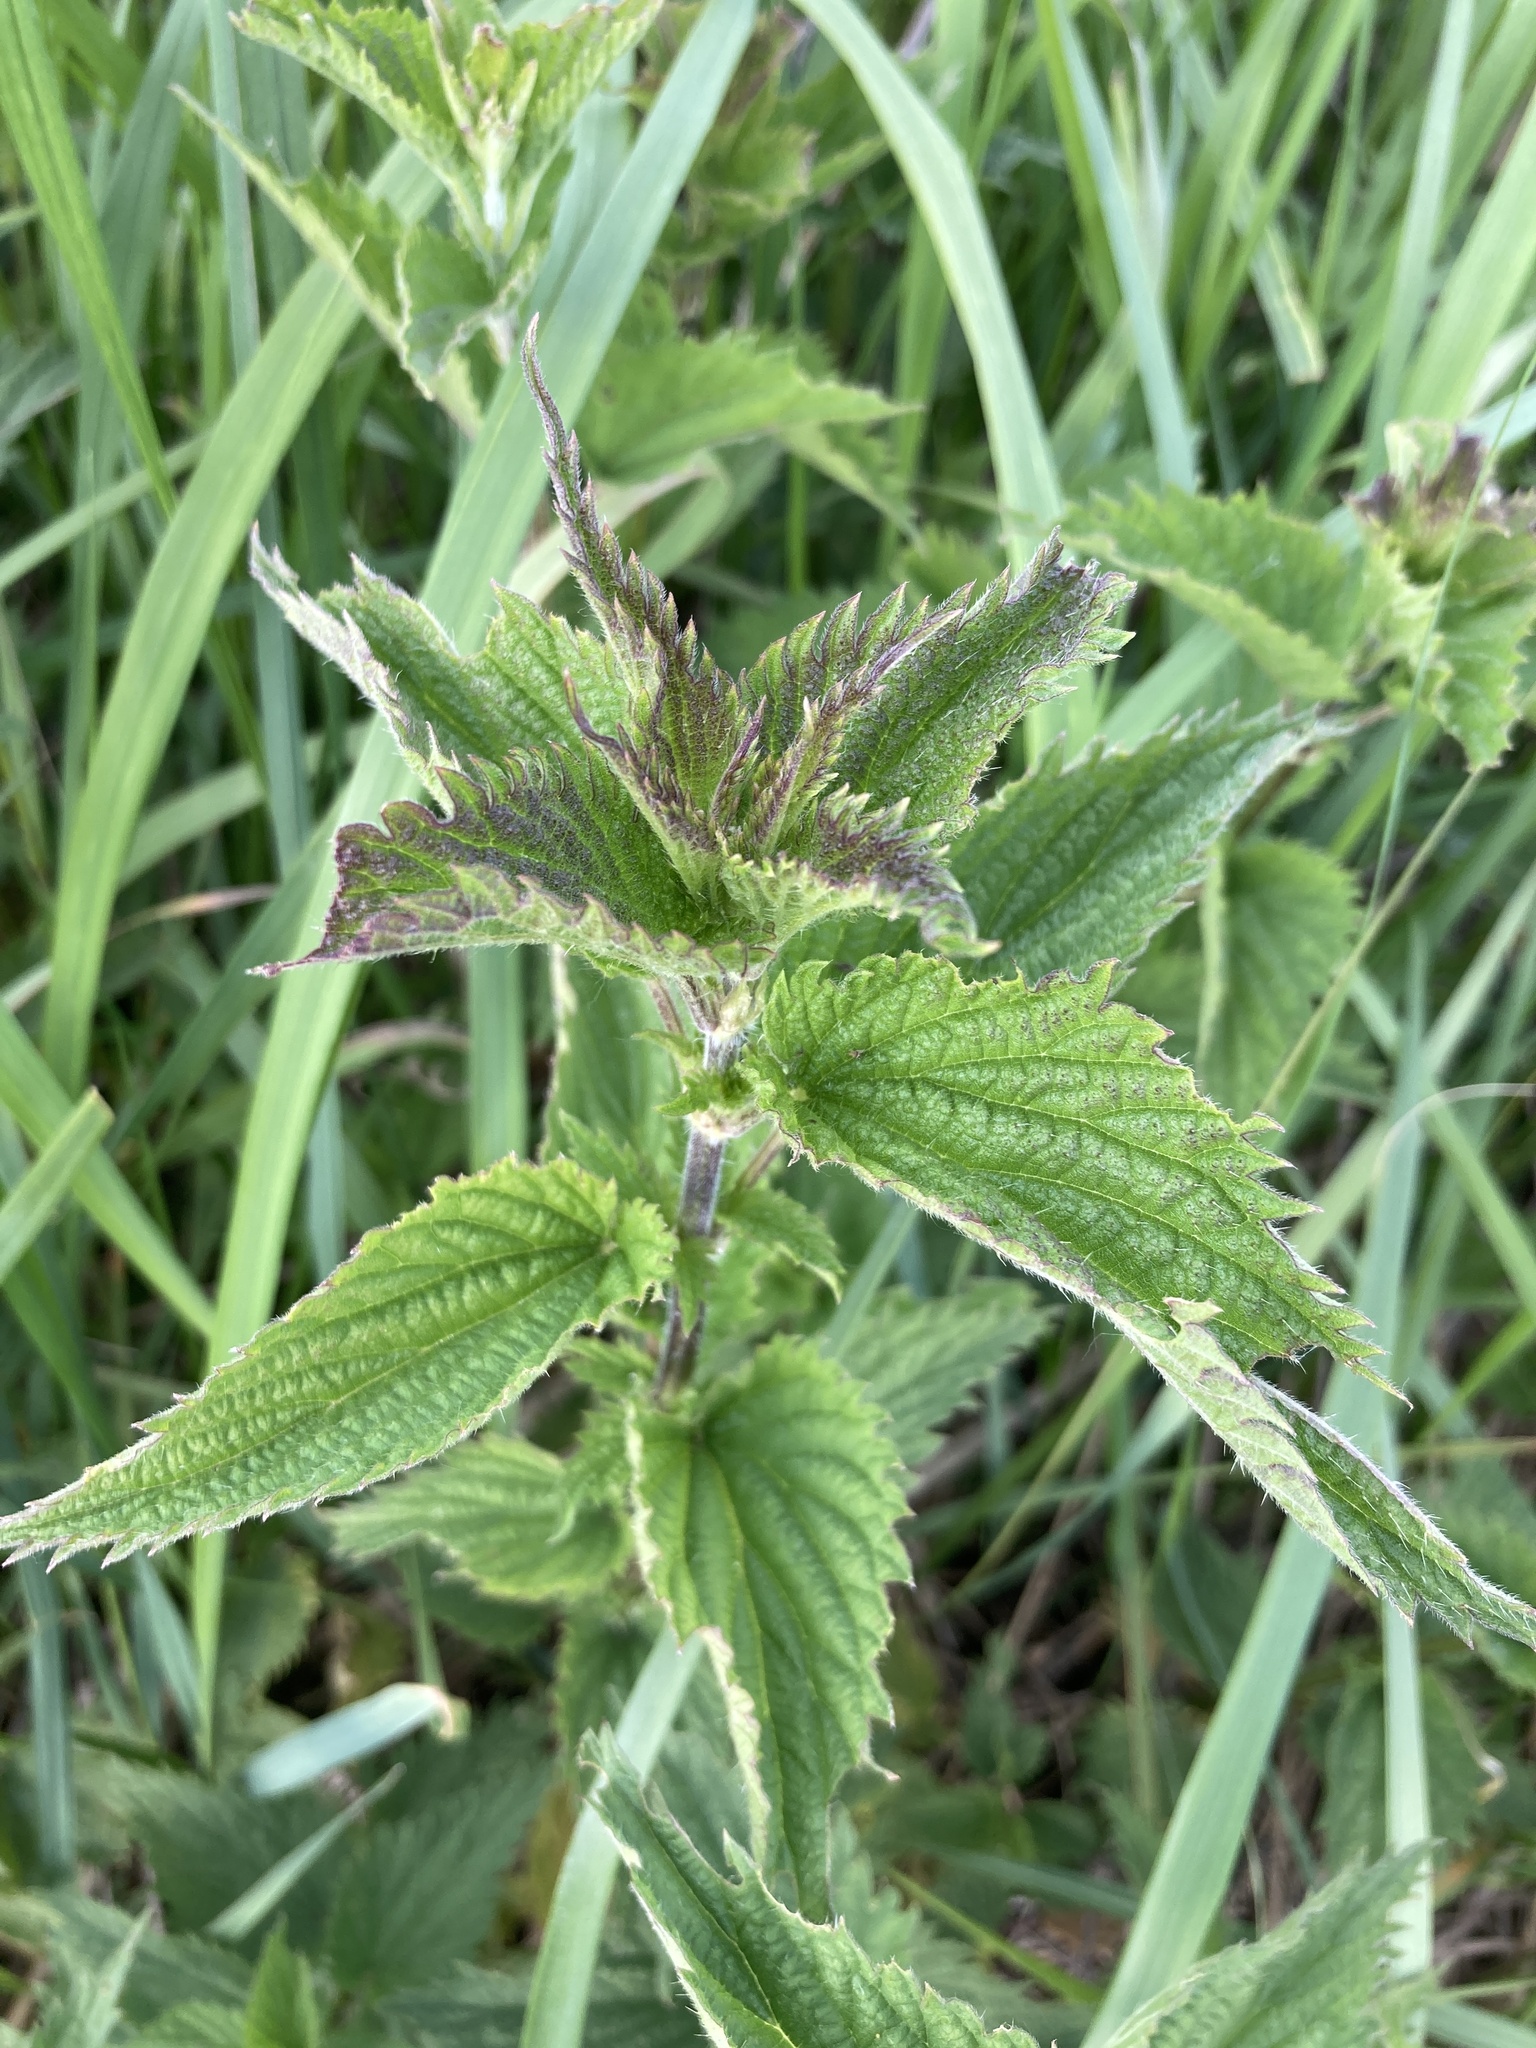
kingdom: Plantae
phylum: Tracheophyta
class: Magnoliopsida
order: Rosales
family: Urticaceae
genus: Urtica
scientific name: Urtica dioica
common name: Common nettle
